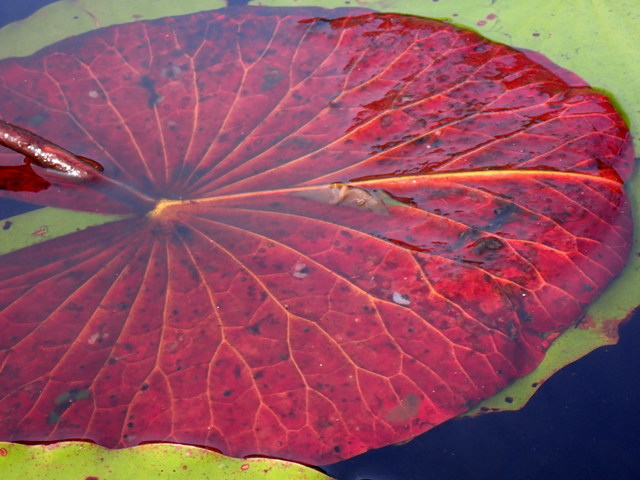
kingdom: Plantae
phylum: Tracheophyta
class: Magnoliopsida
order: Nymphaeales
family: Nymphaeaceae
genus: Nymphaea
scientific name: Nymphaea odorata
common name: Fragrant water-lily
